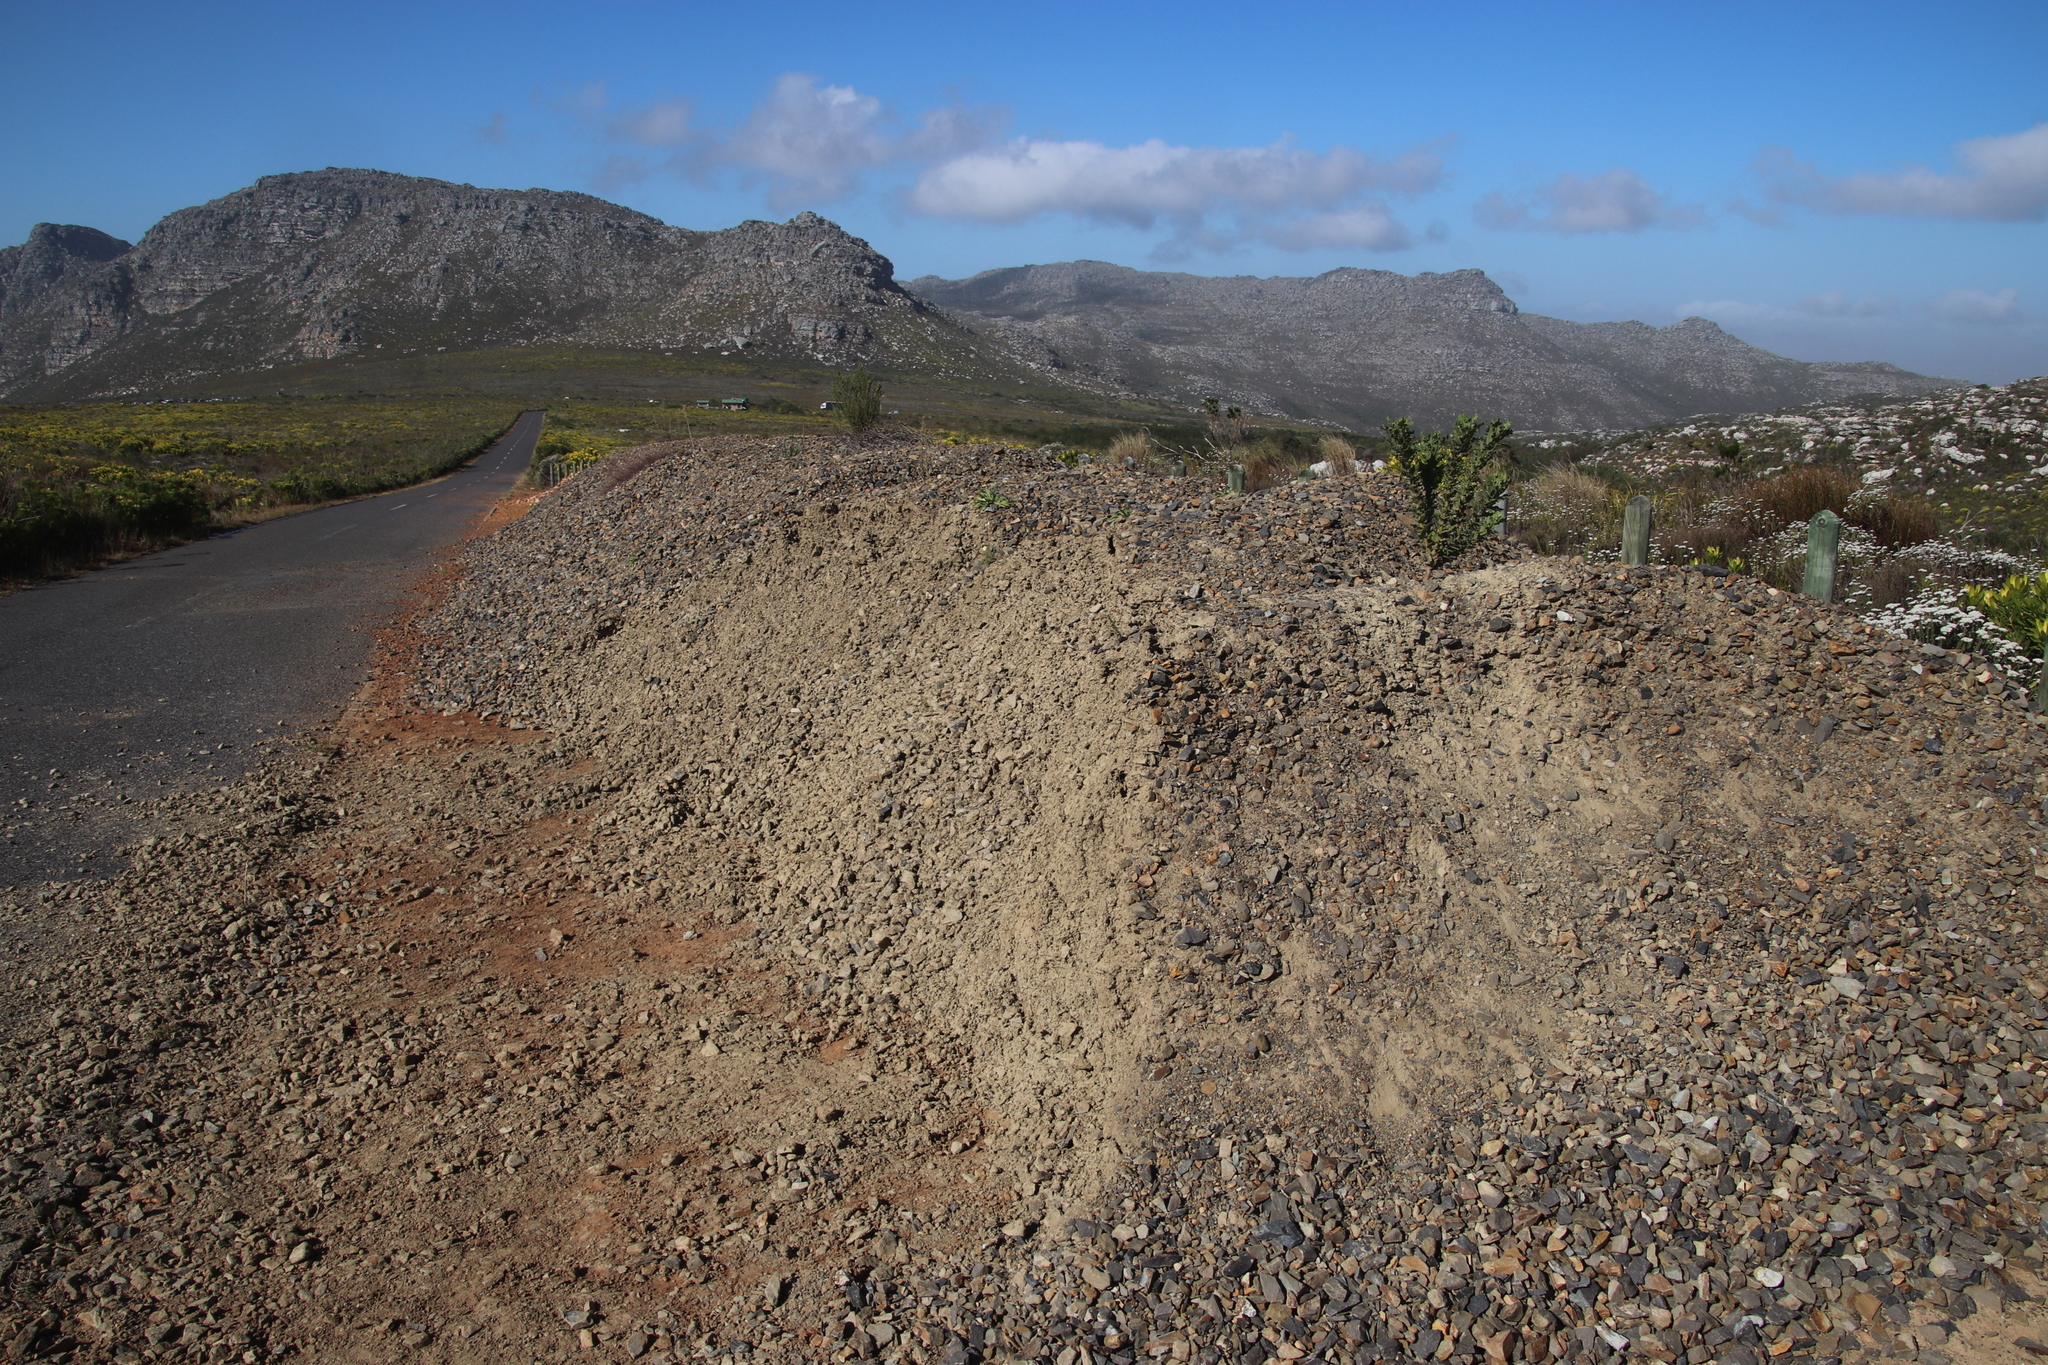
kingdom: Plantae
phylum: Tracheophyta
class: Magnoliopsida
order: Asterales
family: Asteraceae
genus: Senecio
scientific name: Senecio rigidus
